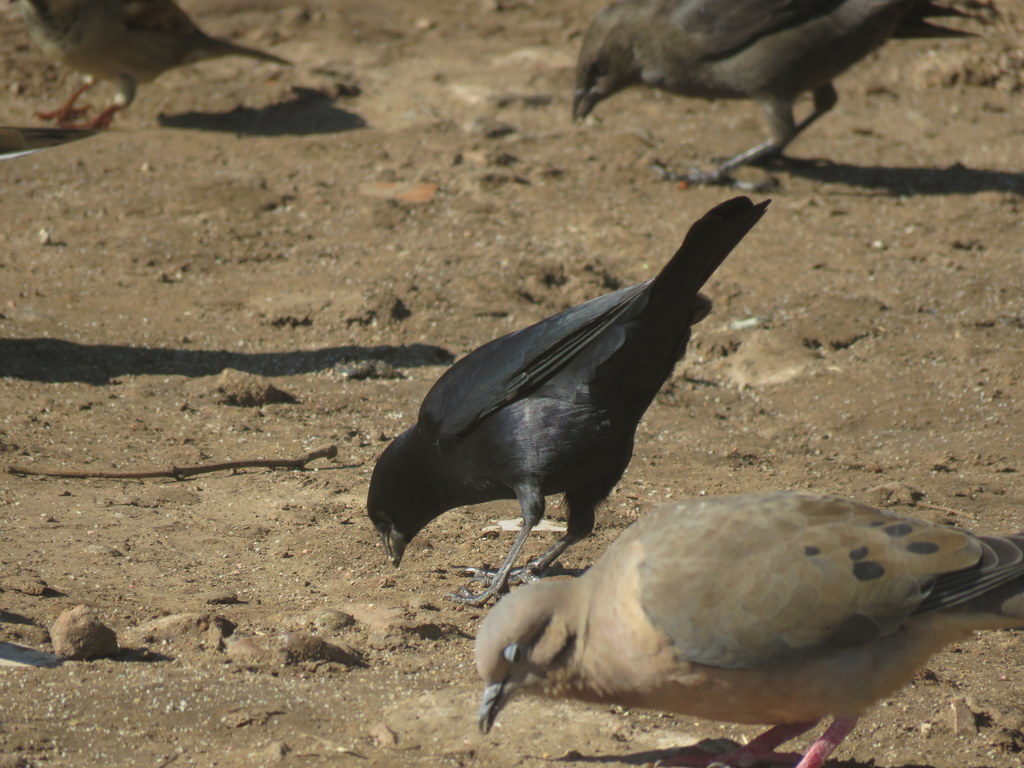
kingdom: Animalia
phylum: Chordata
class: Aves
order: Passeriformes
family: Icteridae
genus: Molothrus
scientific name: Molothrus rufoaxillaris
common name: Screaming cowbird
